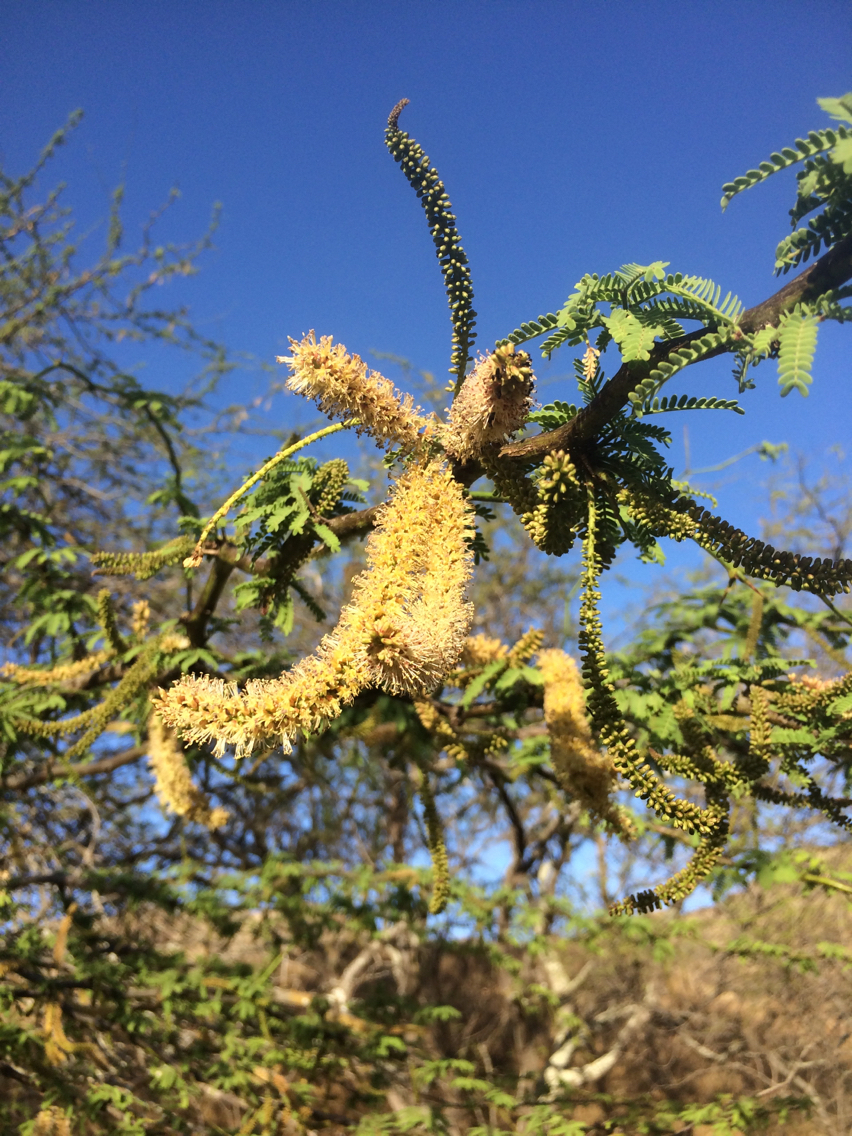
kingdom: Plantae
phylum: Tracheophyta
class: Magnoliopsida
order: Fabales
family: Fabaceae
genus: Prosopis
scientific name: Prosopis pallida
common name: Mesquite
